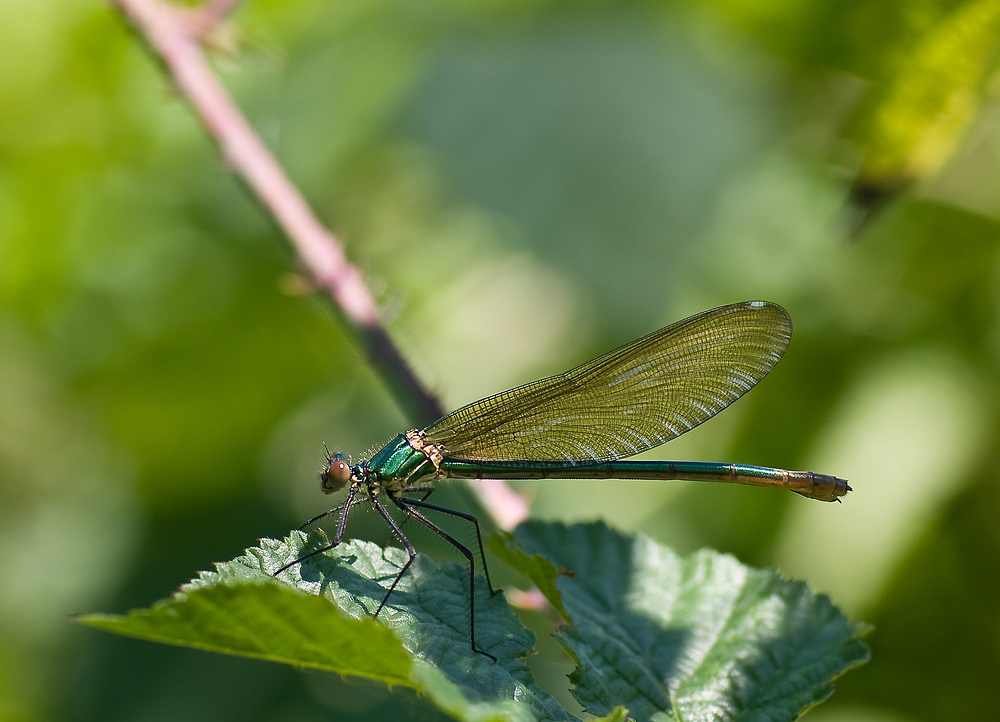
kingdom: Animalia
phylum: Arthropoda
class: Insecta
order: Odonata
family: Calopterygidae
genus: Calopteryx
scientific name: Calopteryx xanthostoma
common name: Western demoiselle
